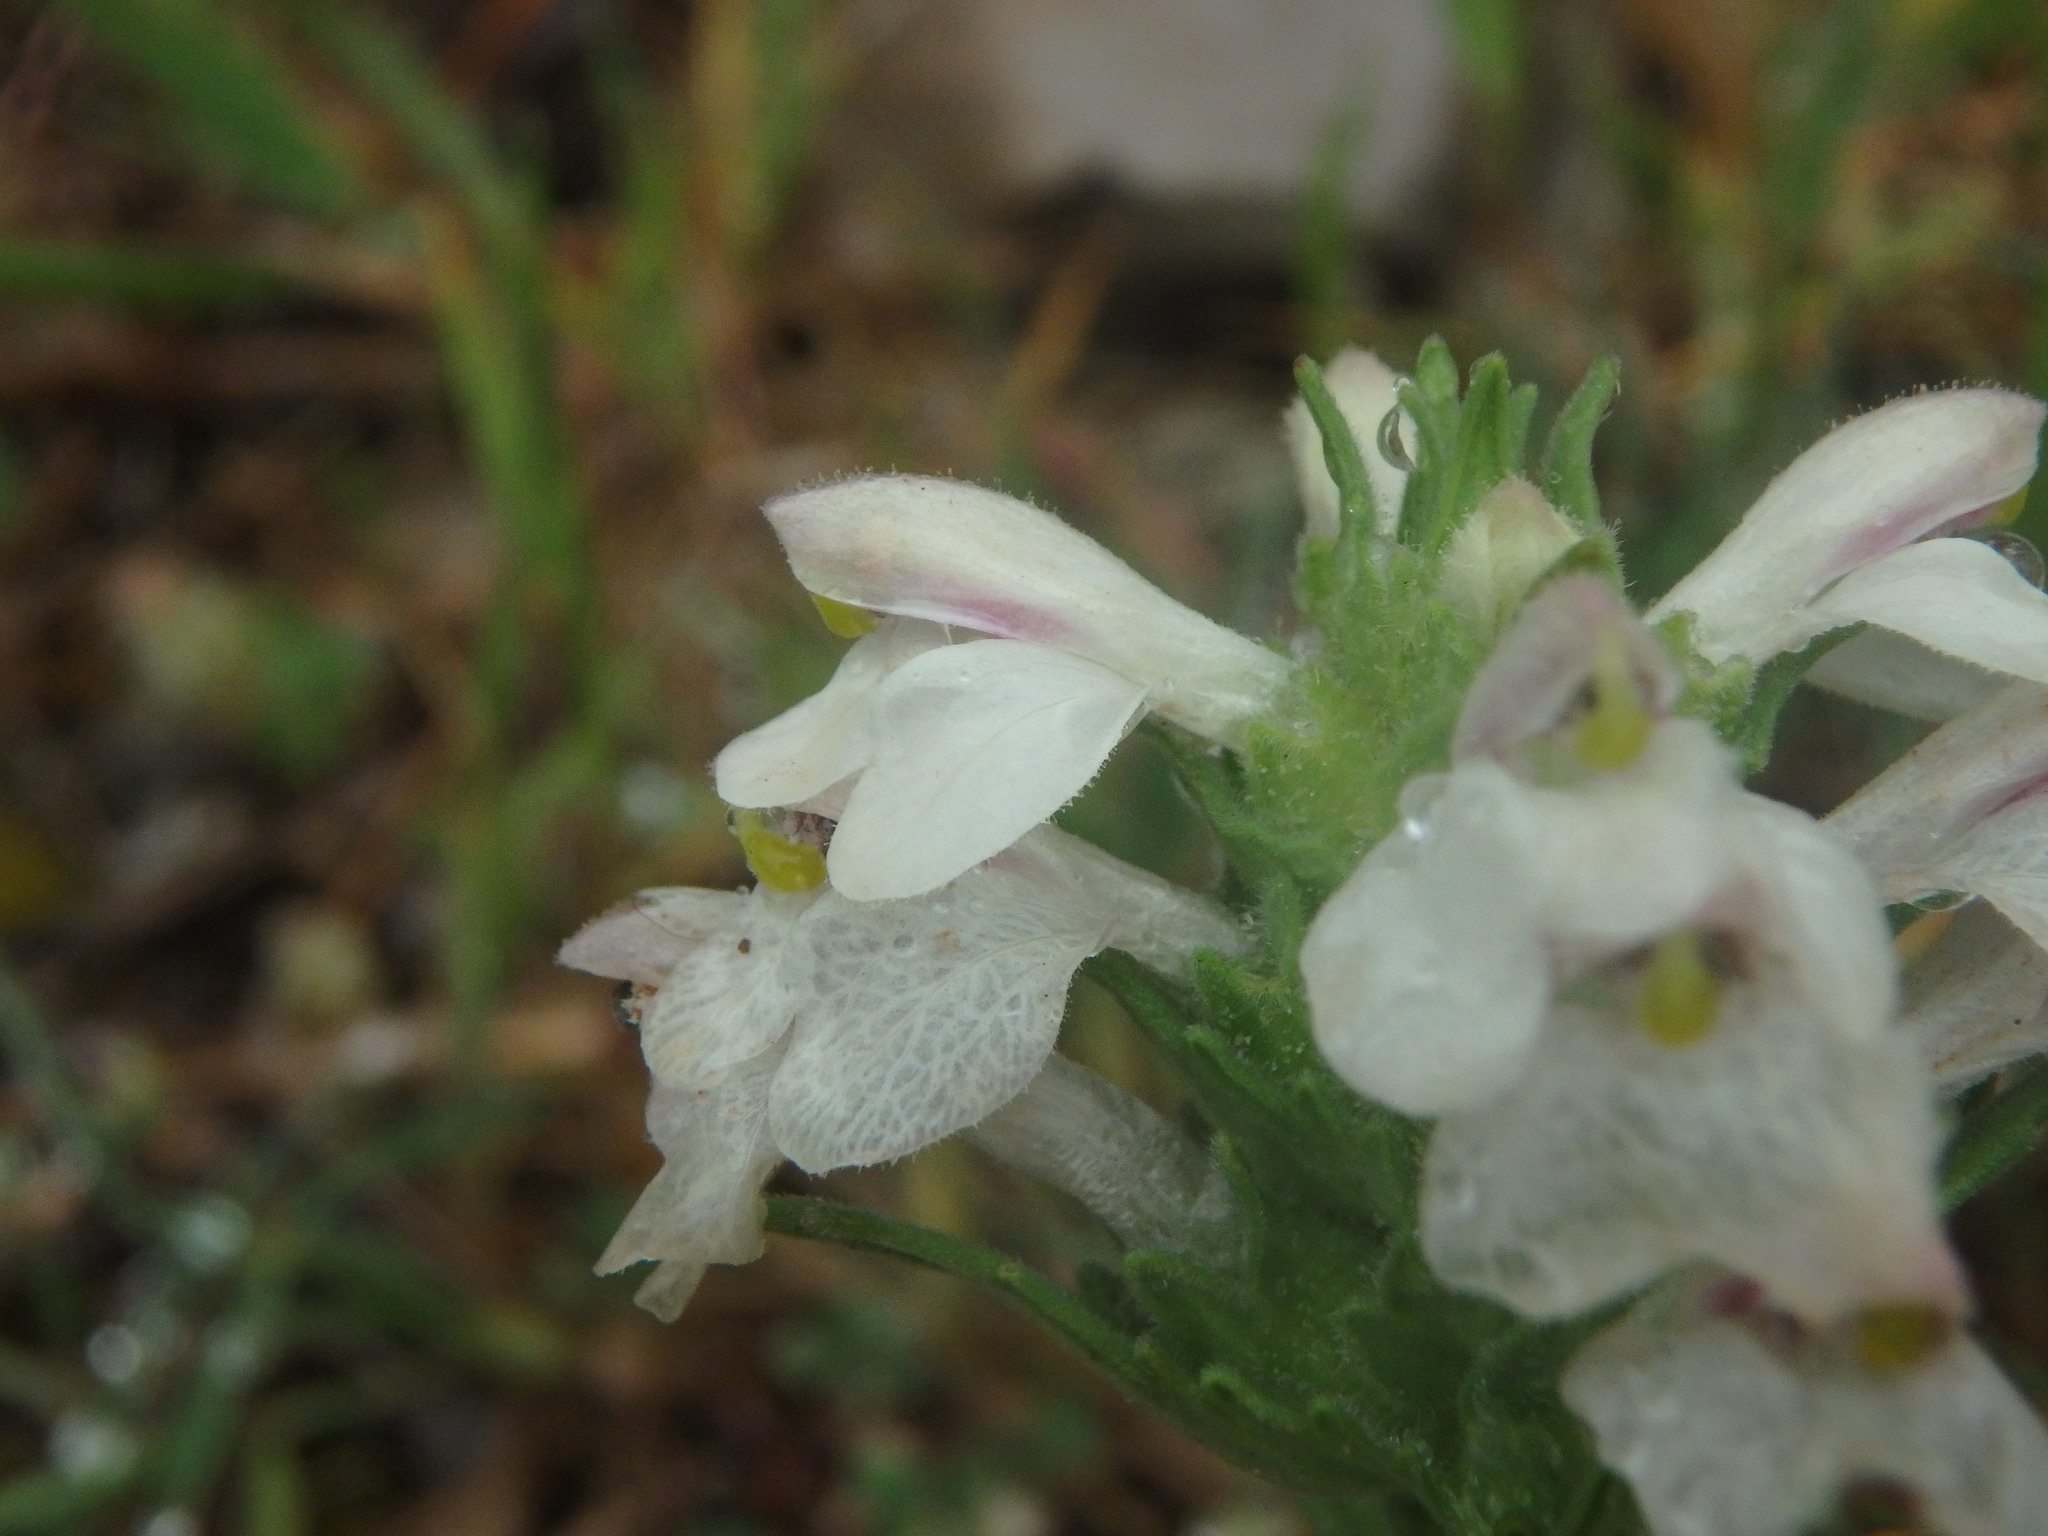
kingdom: Plantae
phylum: Tracheophyta
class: Magnoliopsida
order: Lamiales
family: Orobanchaceae
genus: Bellardia
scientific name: Bellardia trixago
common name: Mediterranean lineseed
